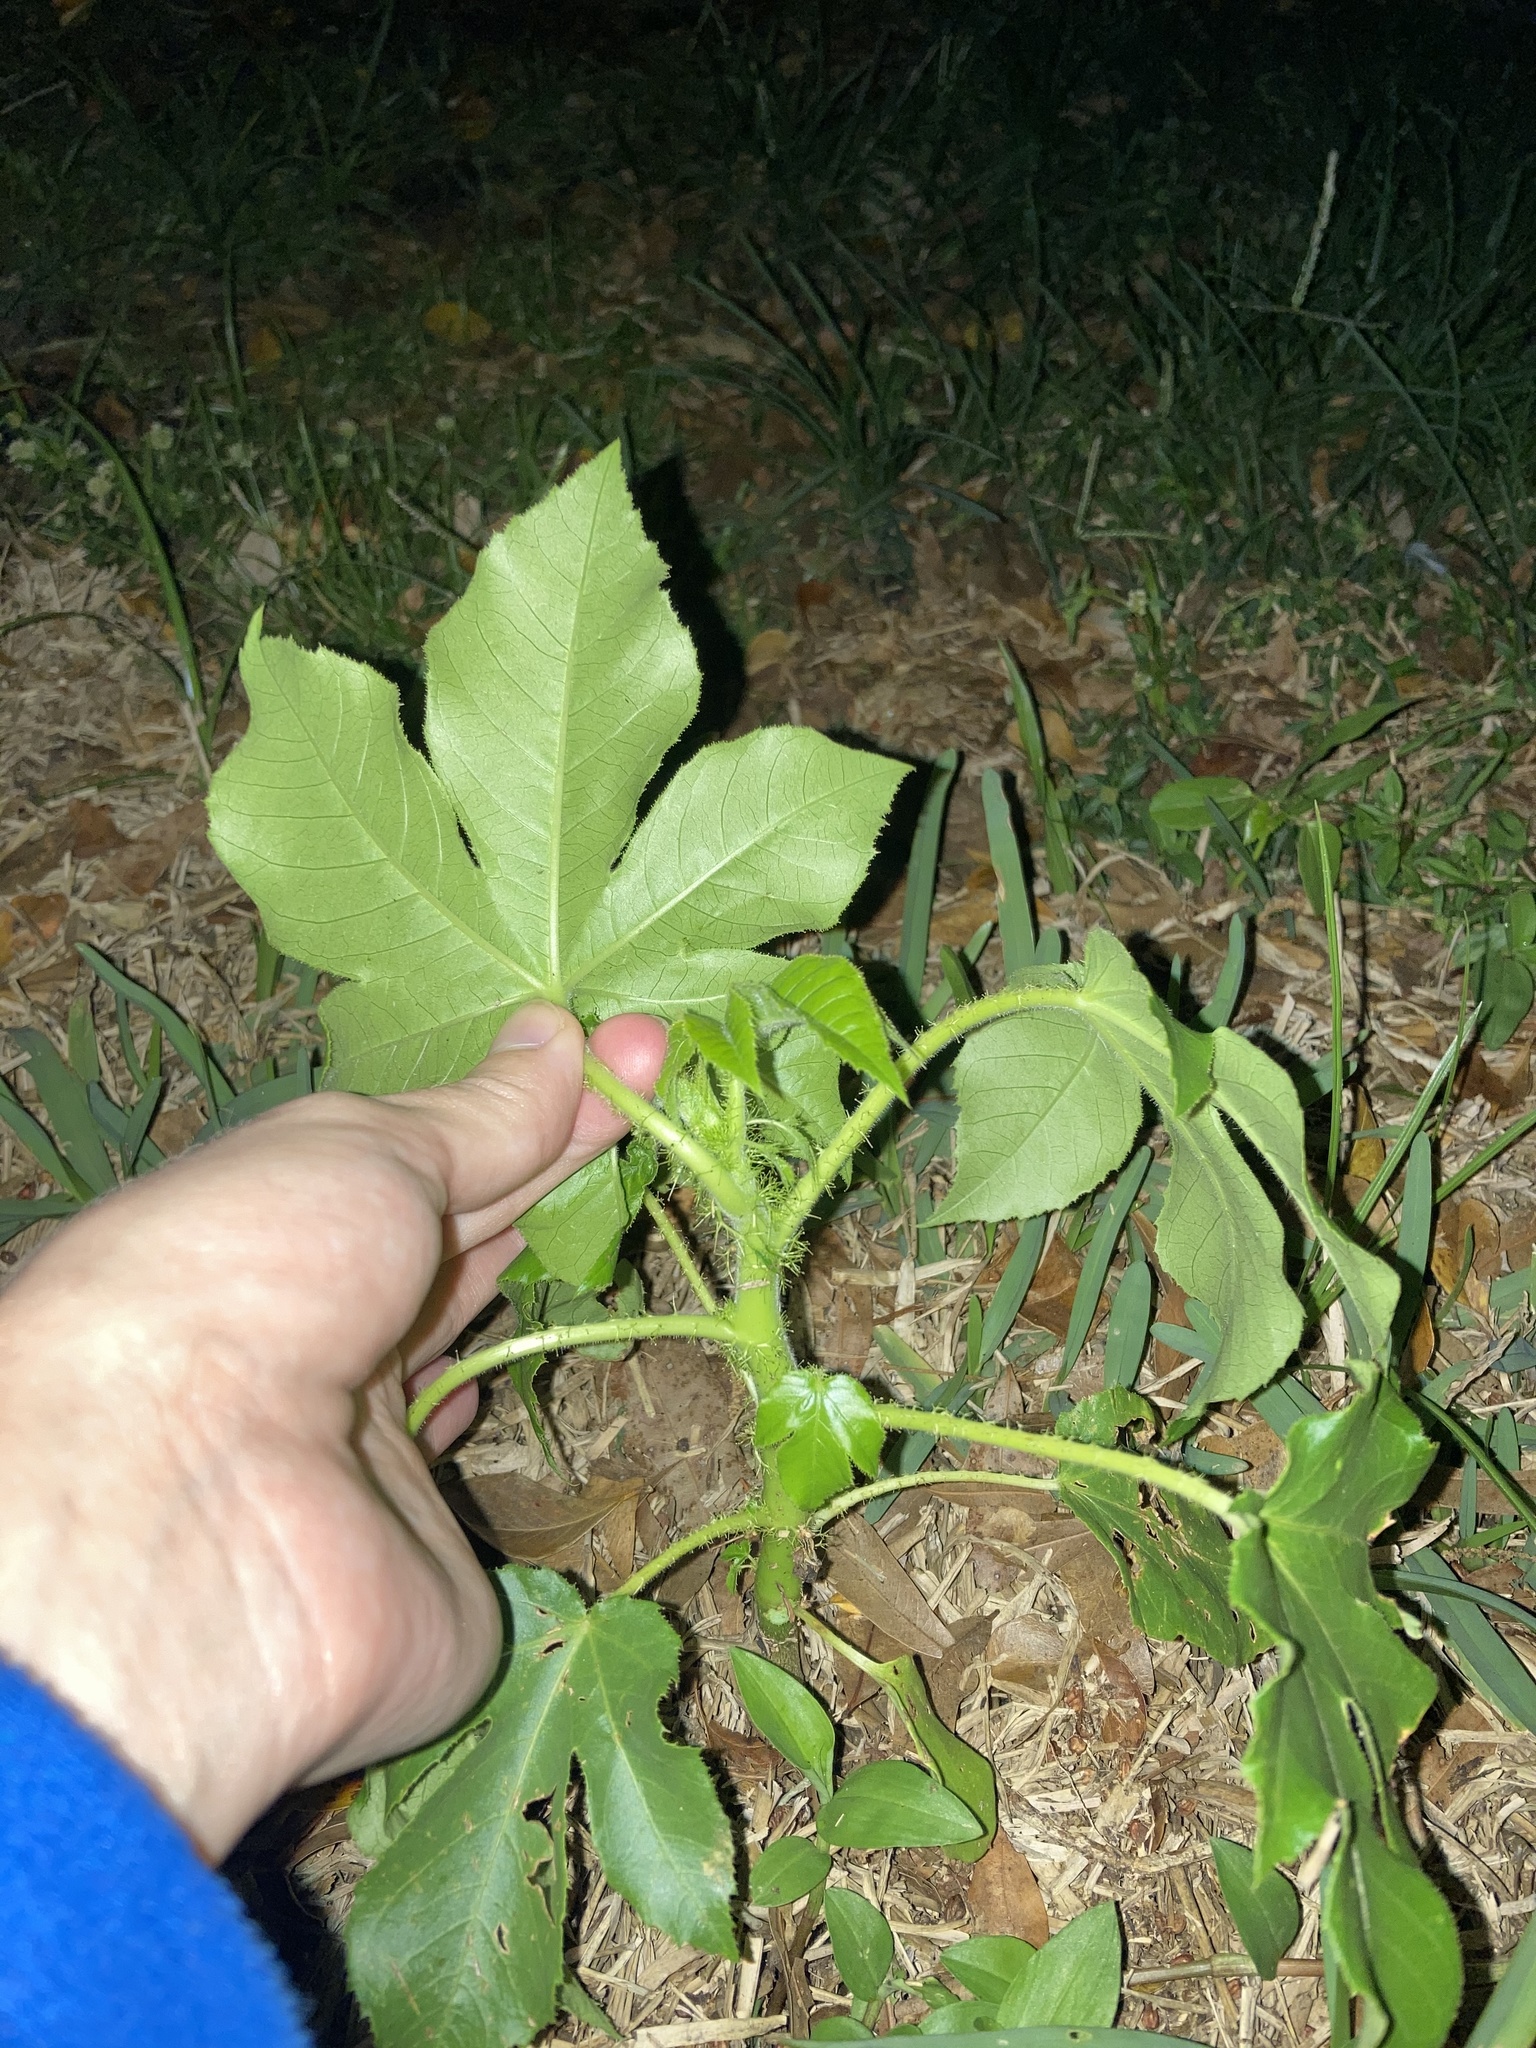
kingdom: Plantae
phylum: Tracheophyta
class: Magnoliopsida
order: Malpighiales
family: Euphorbiaceae
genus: Jatropha
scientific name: Jatropha gossypiifolia
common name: Bellyache bush
